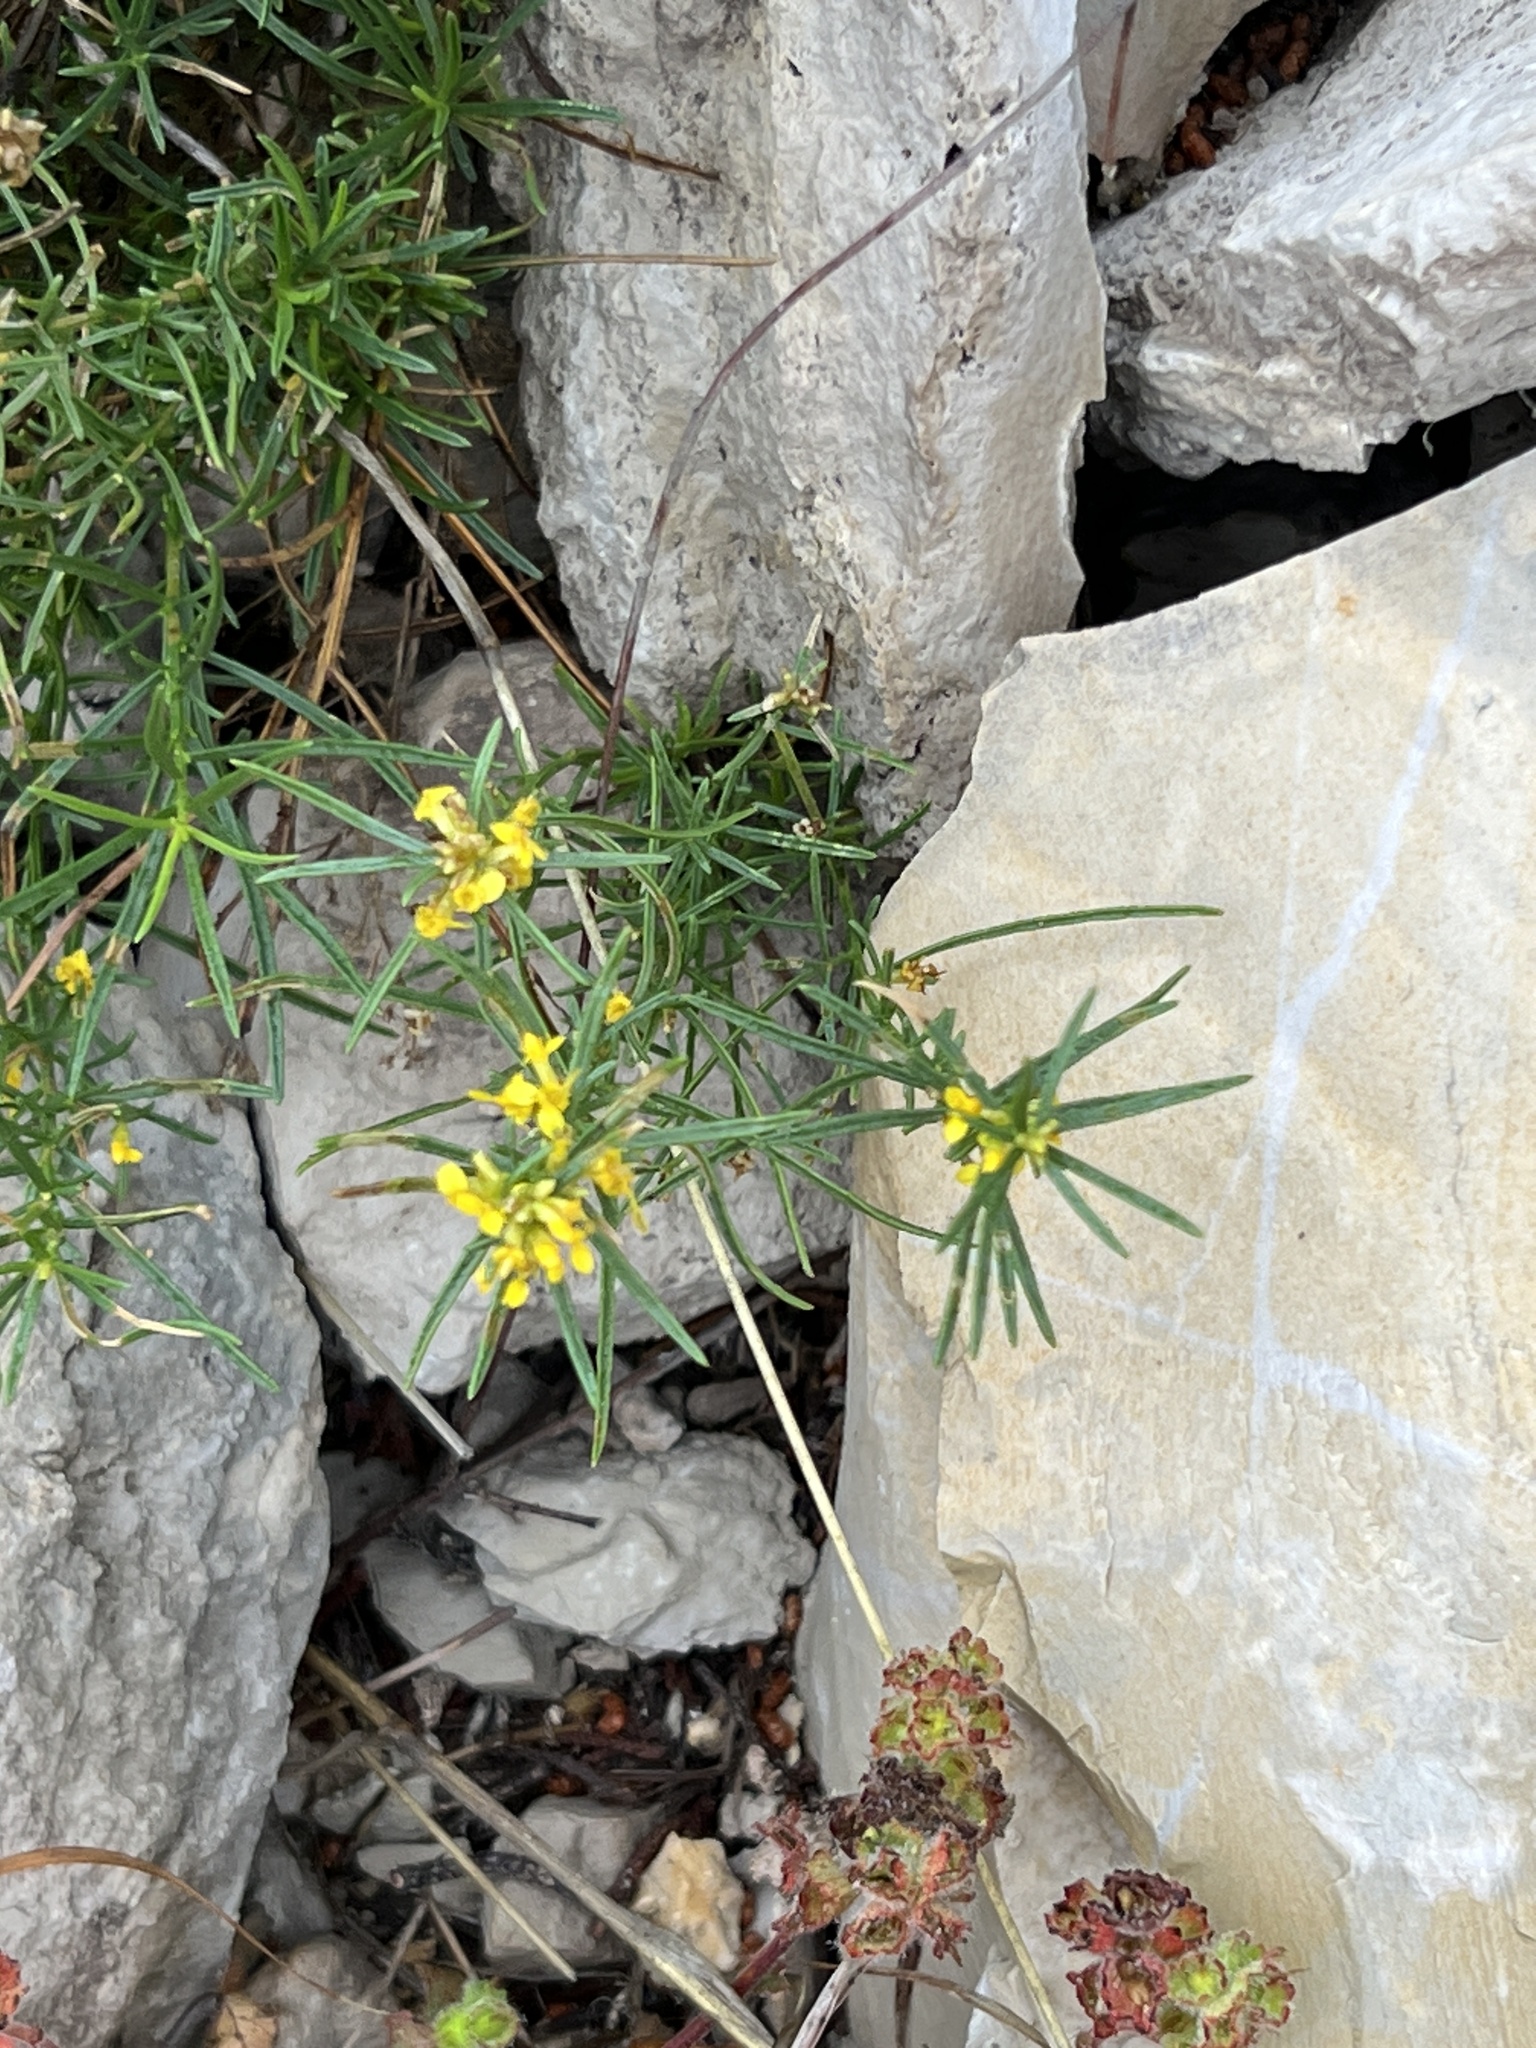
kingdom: Plantae
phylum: Tracheophyta
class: Magnoliopsida
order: Asterales
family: Asteraceae
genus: Pectis
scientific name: Pectis angustifolia
